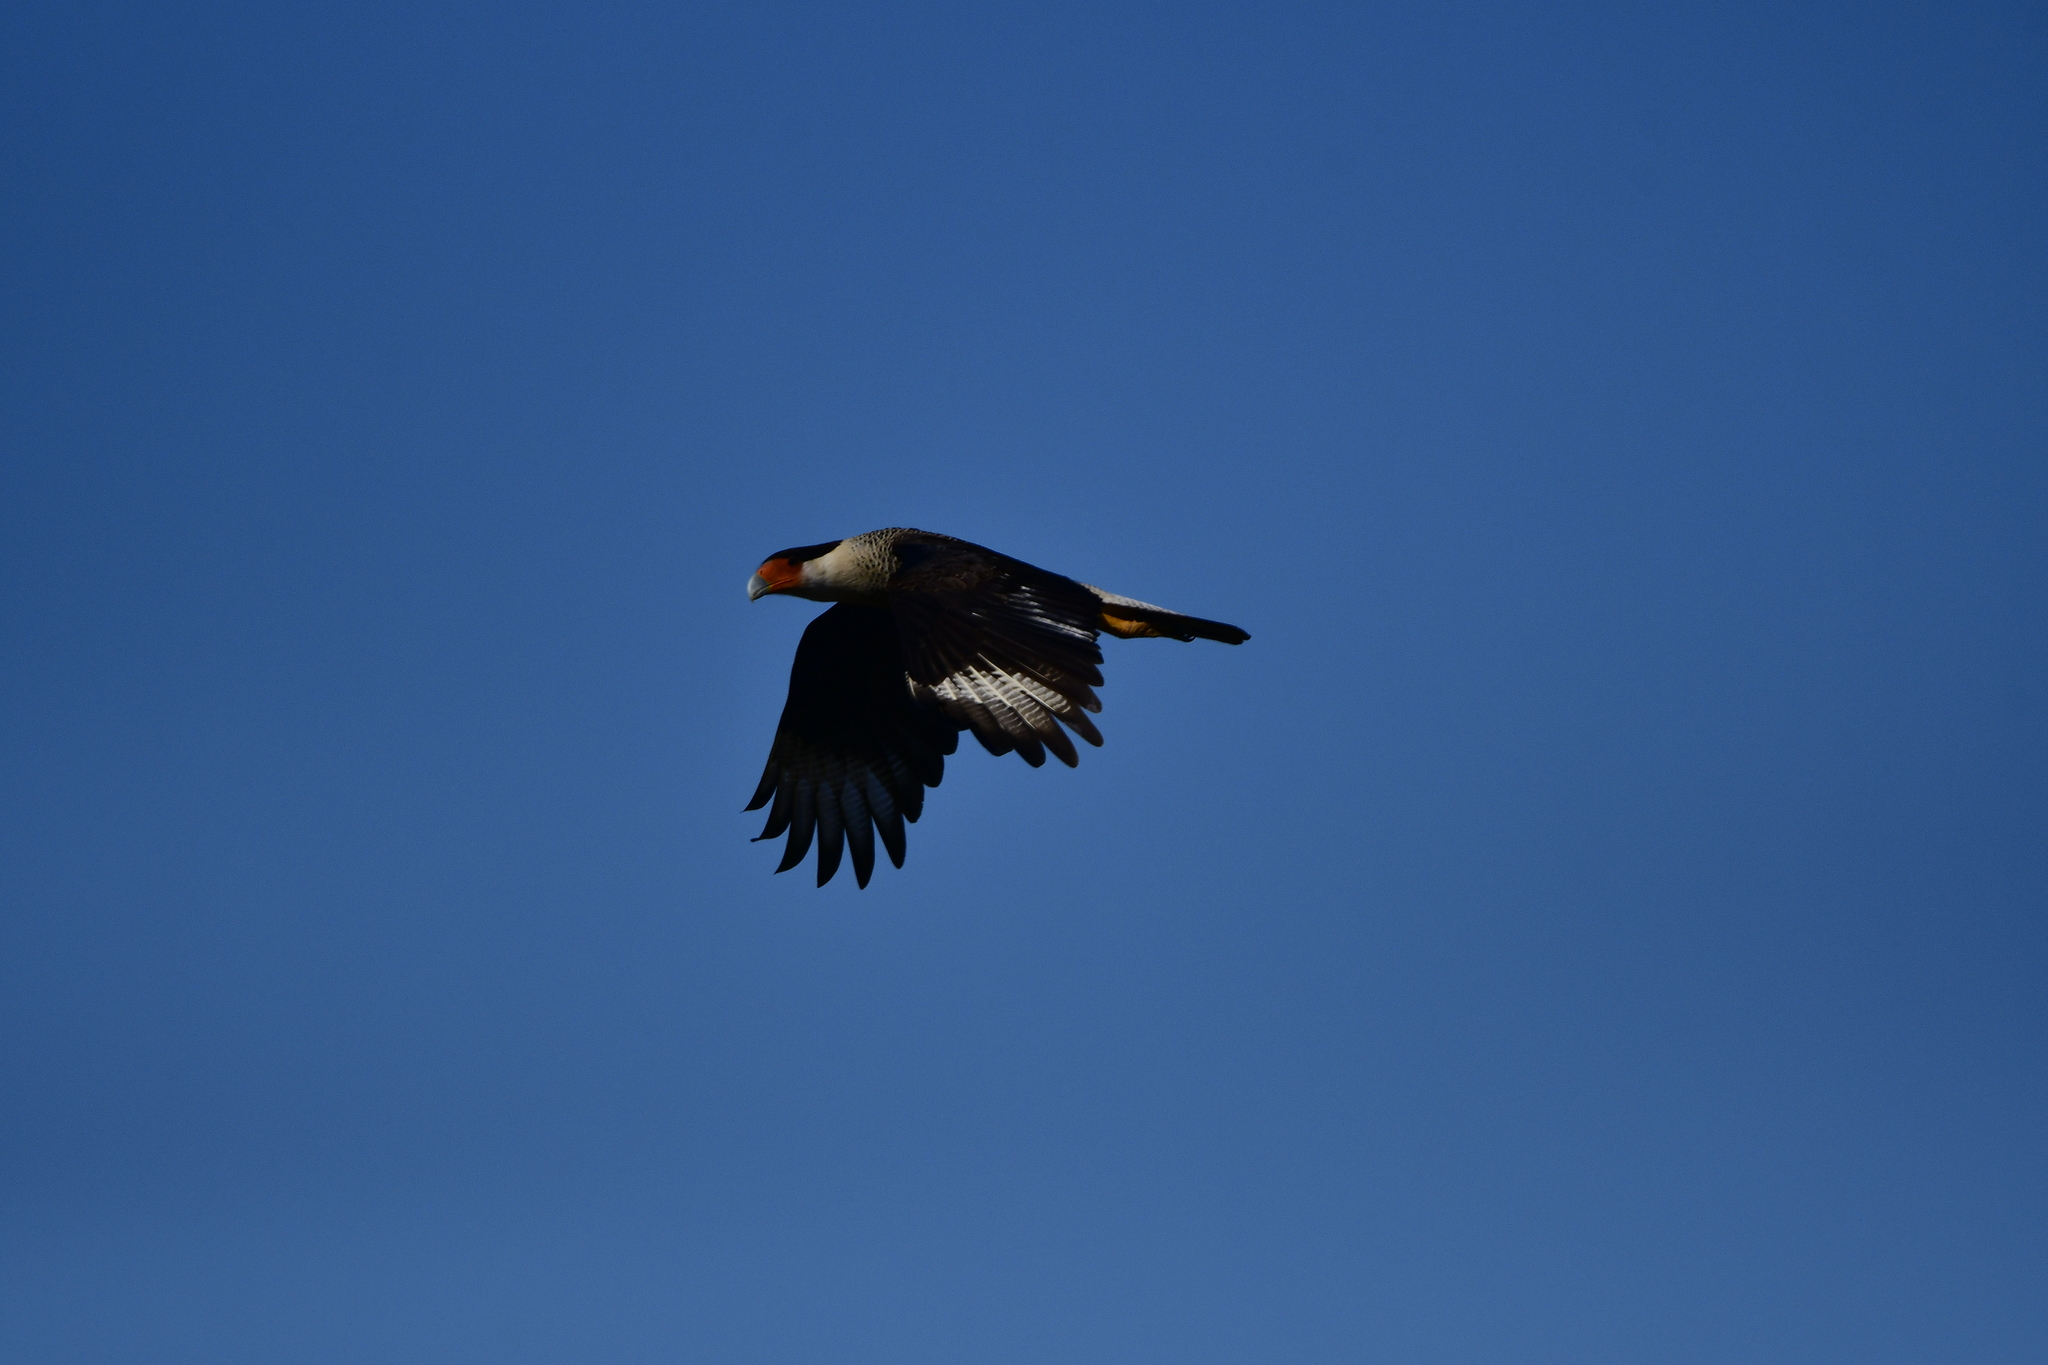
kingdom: Animalia
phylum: Chordata
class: Aves
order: Falconiformes
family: Falconidae
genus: Caracara
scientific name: Caracara plancus
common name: Southern caracara
